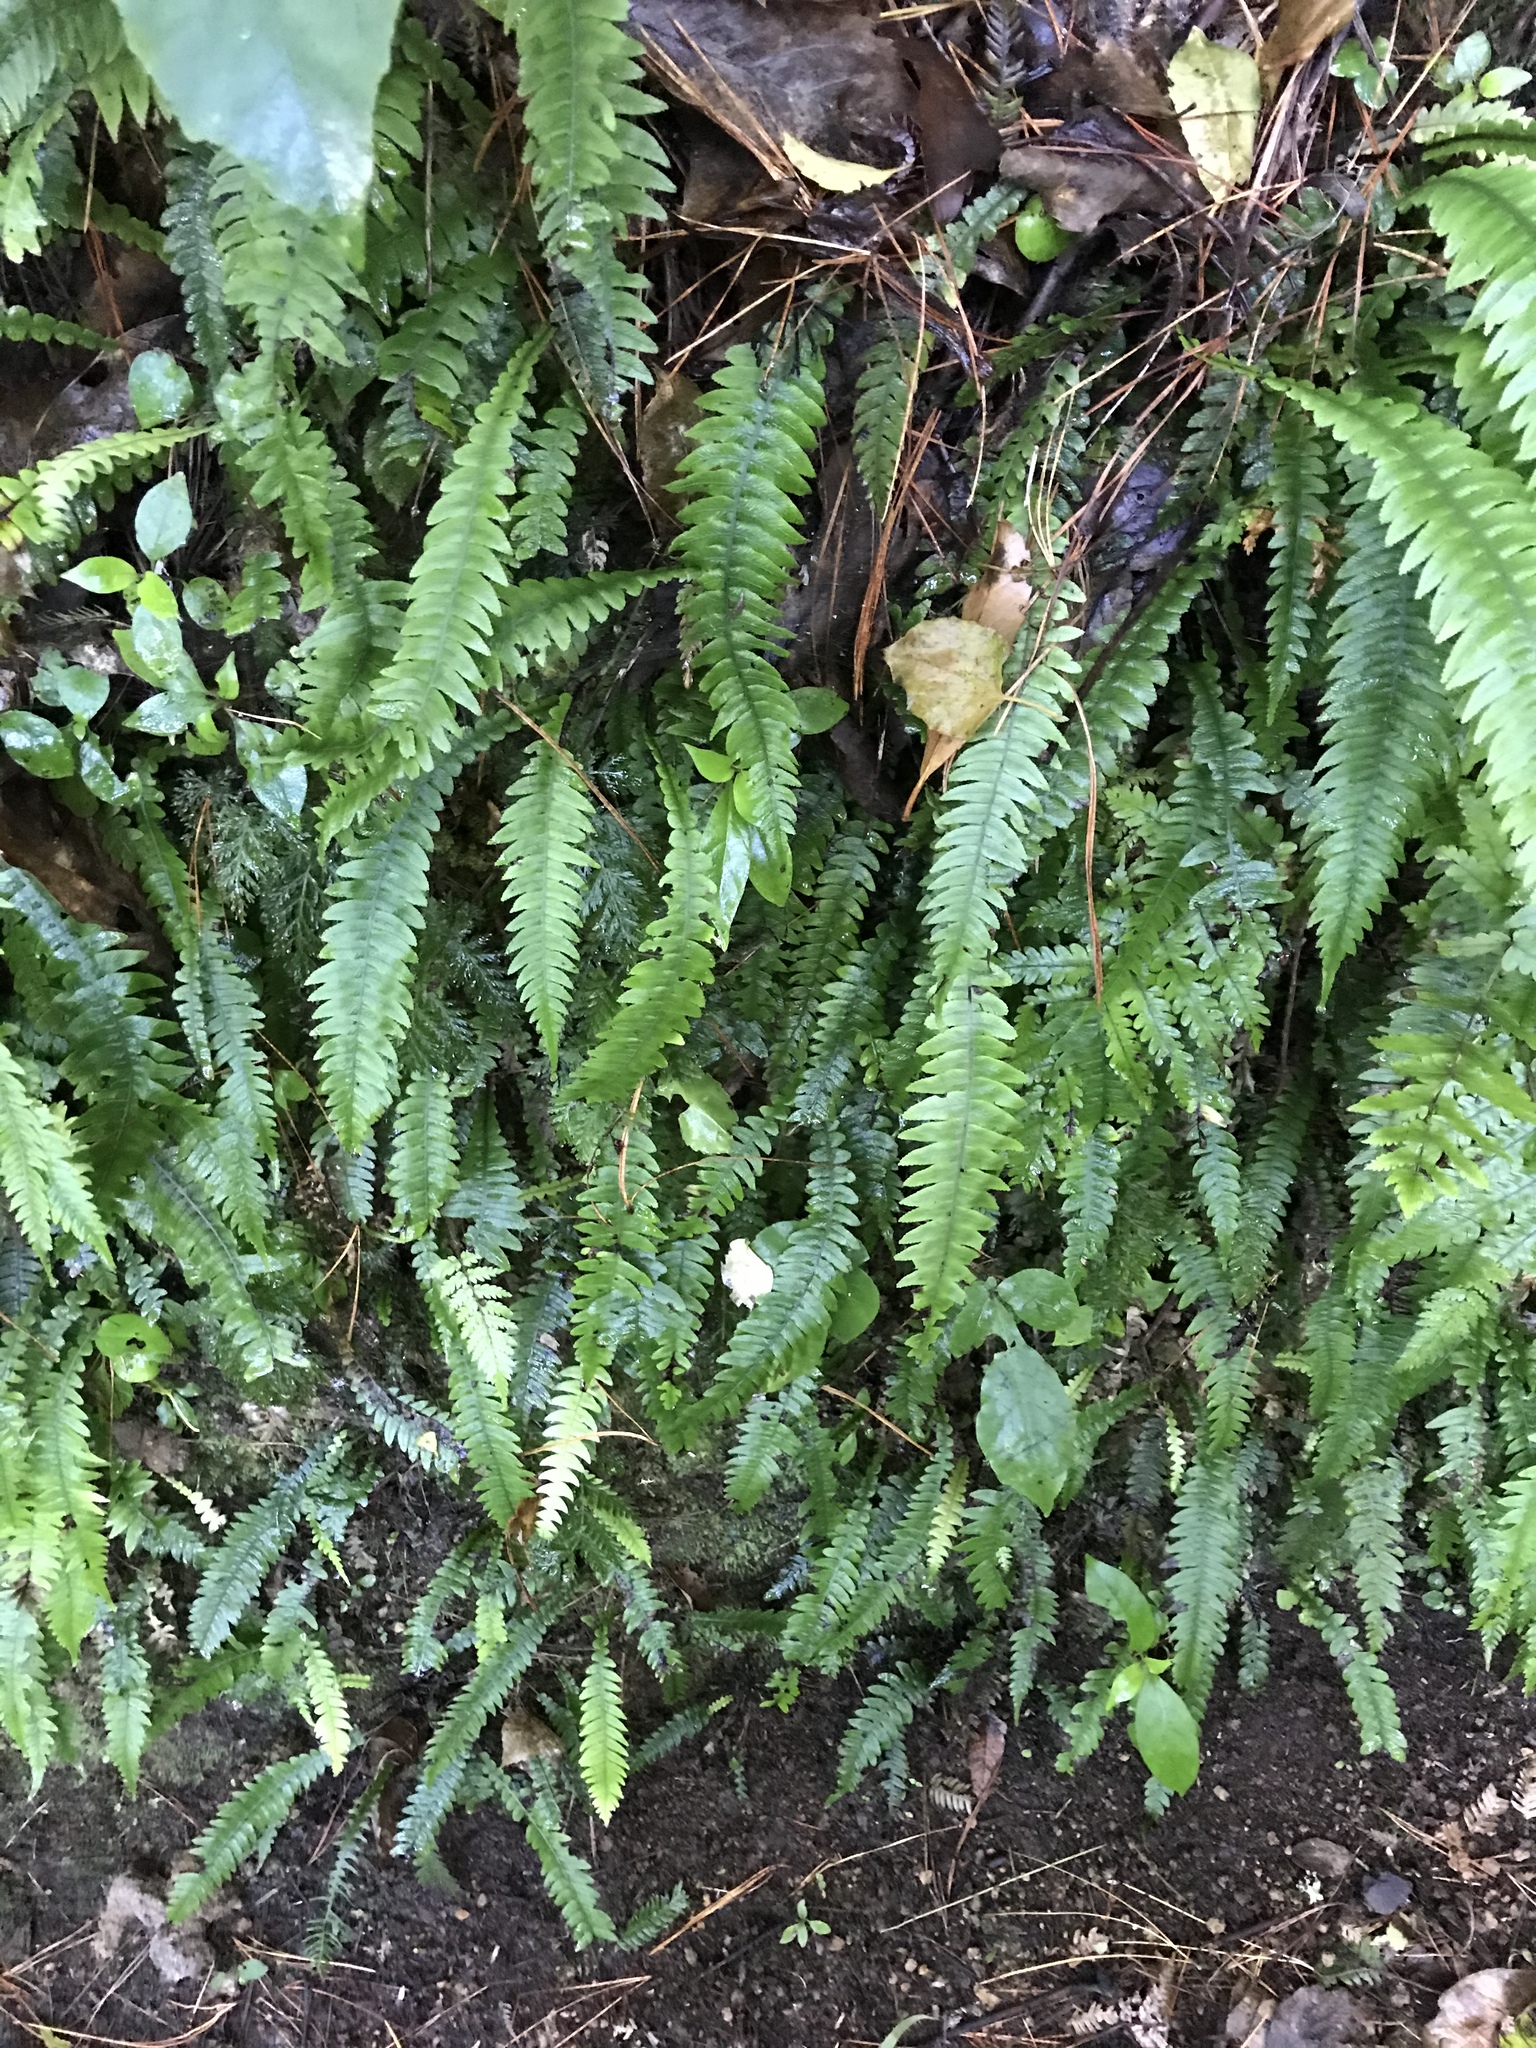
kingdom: Plantae
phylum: Tracheophyta
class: Polypodiopsida
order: Polypodiales
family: Blechnaceae
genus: Austroblechnum
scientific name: Austroblechnum lanceolatum
